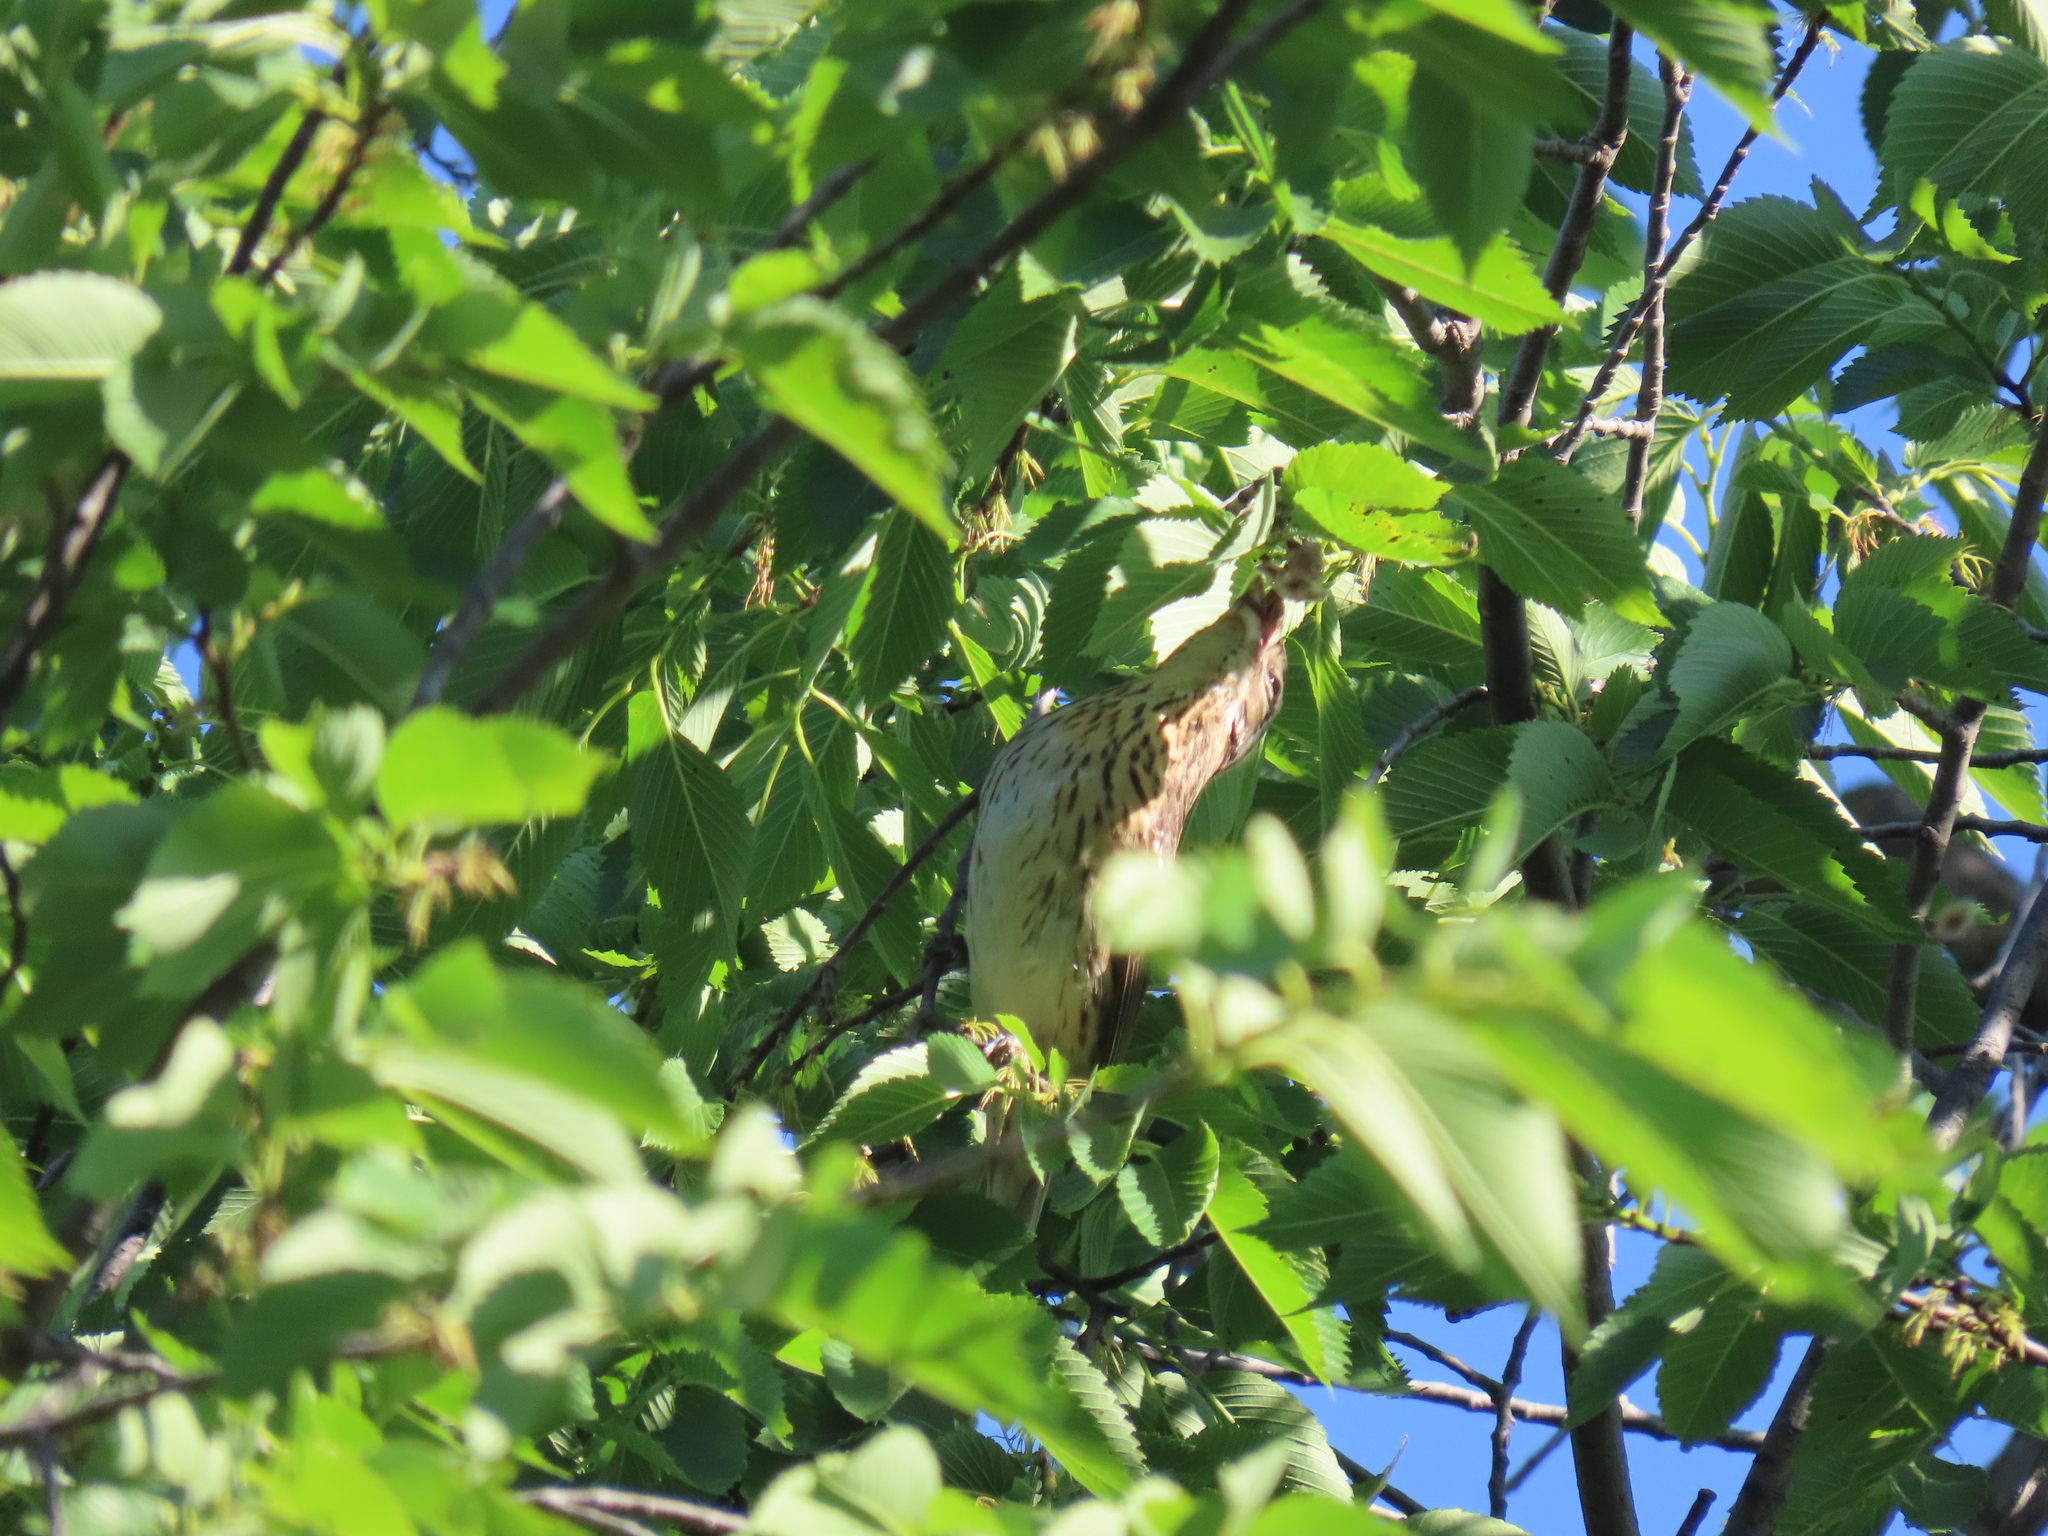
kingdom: Animalia
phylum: Chordata
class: Aves
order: Passeriformes
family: Cardinalidae
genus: Pheucticus
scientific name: Pheucticus ludovicianus
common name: Rose-breasted grosbeak
